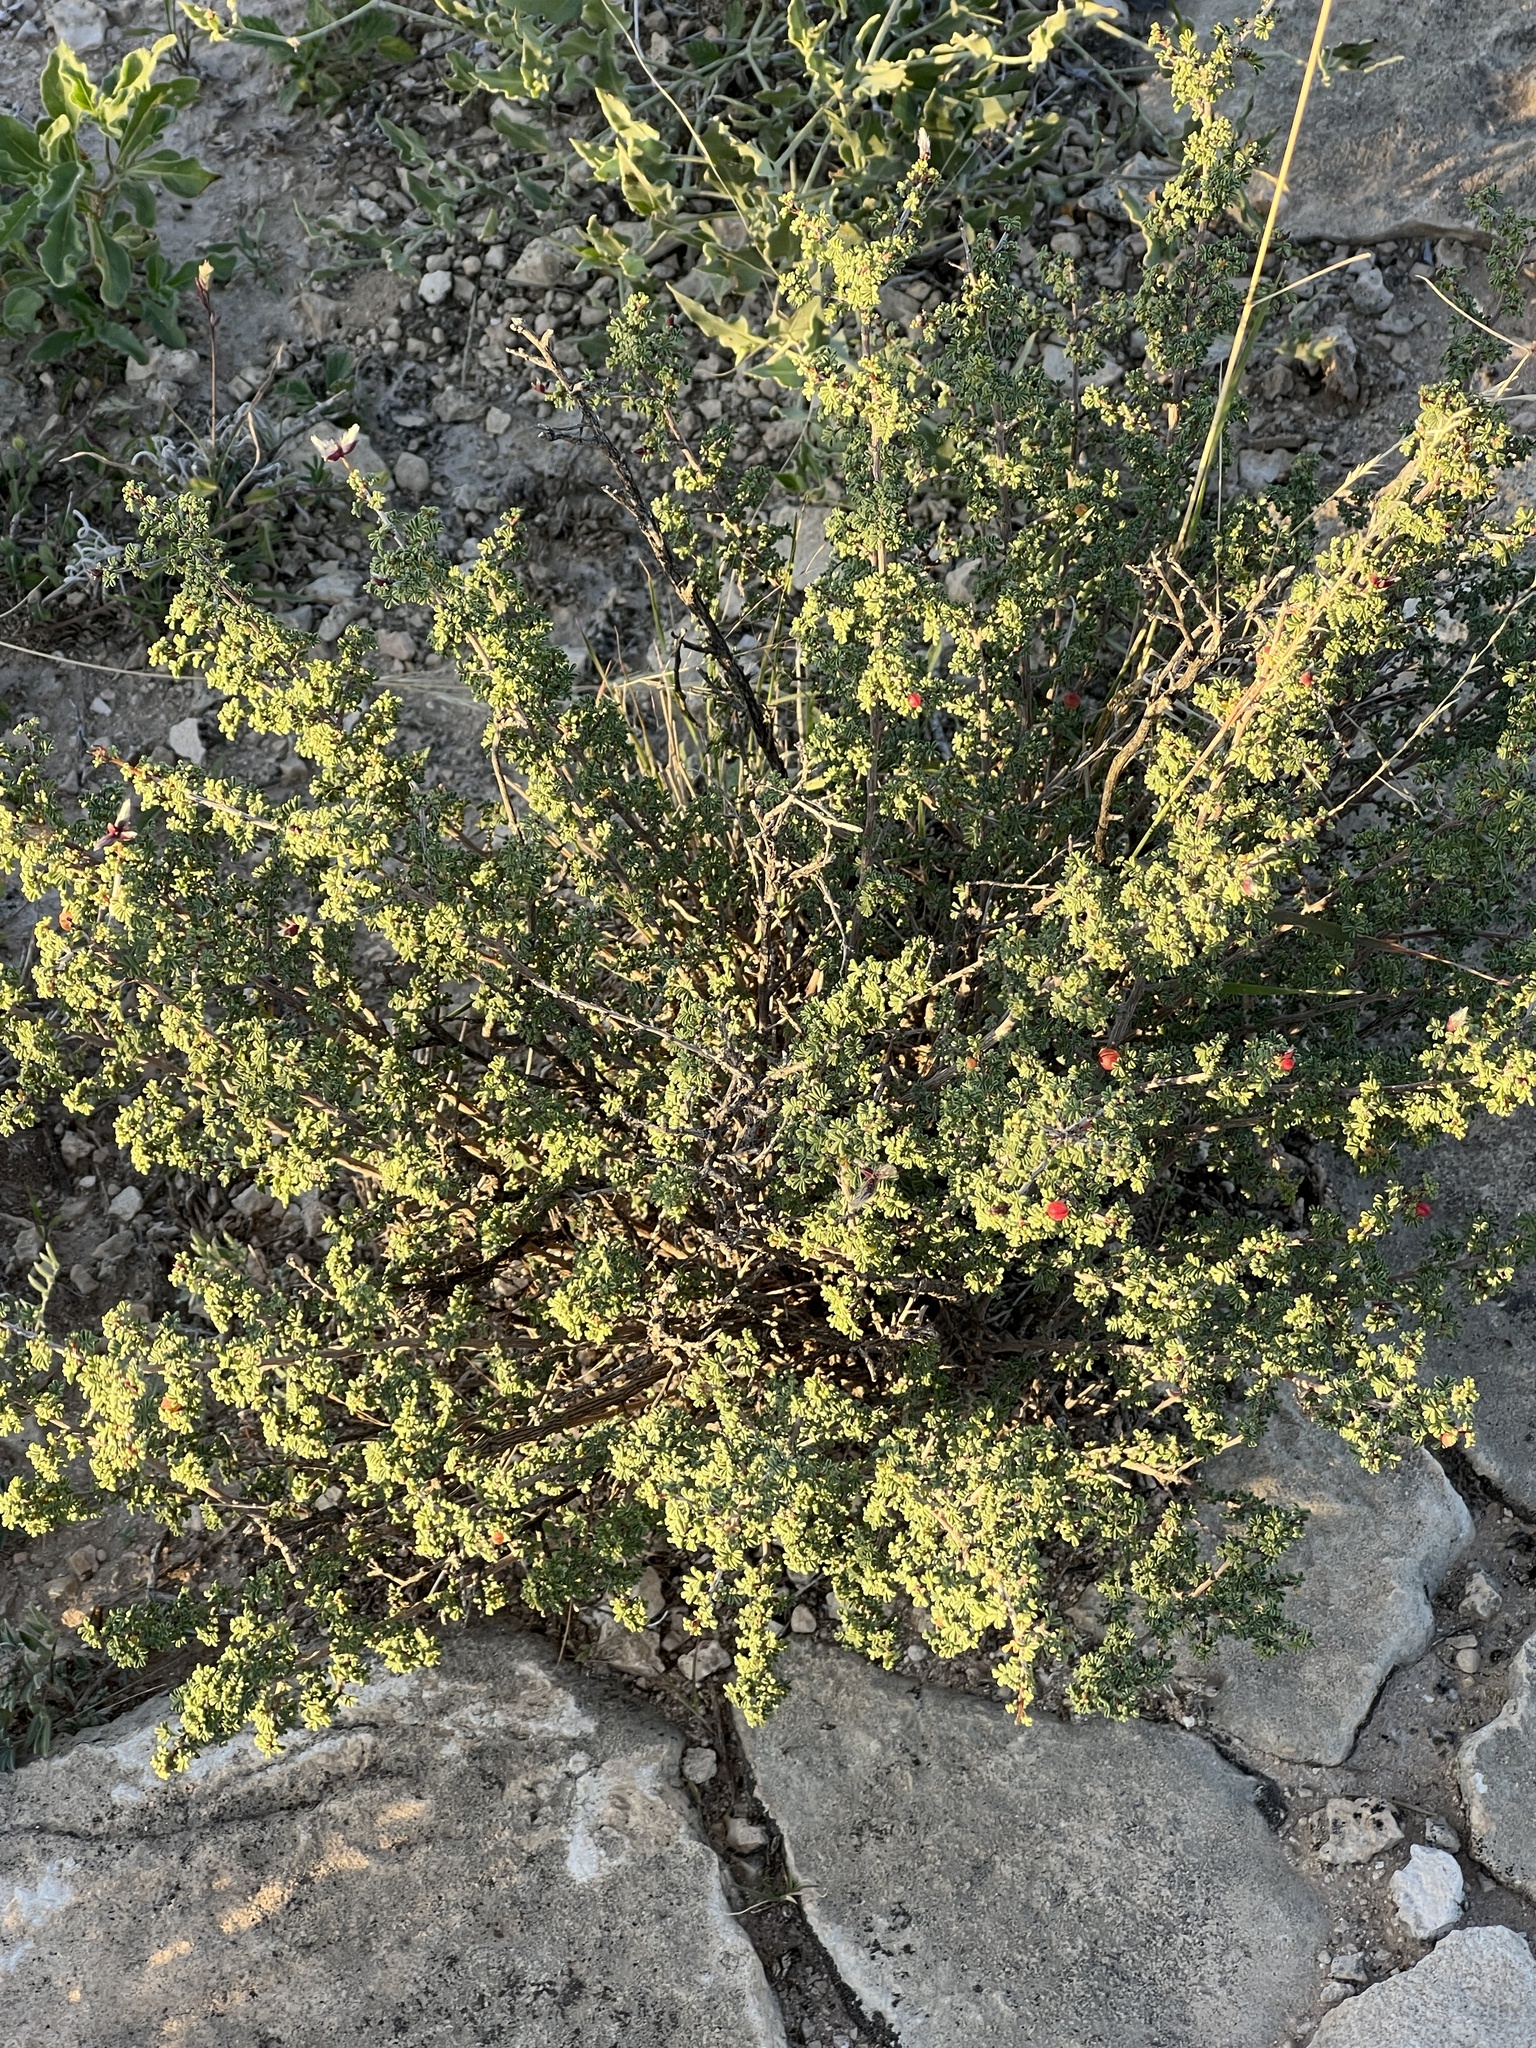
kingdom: Plantae
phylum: Tracheophyta
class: Magnoliopsida
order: Fabales
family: Fabaceae
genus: Dalea
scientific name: Dalea formosa
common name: Feather-plume dalea
